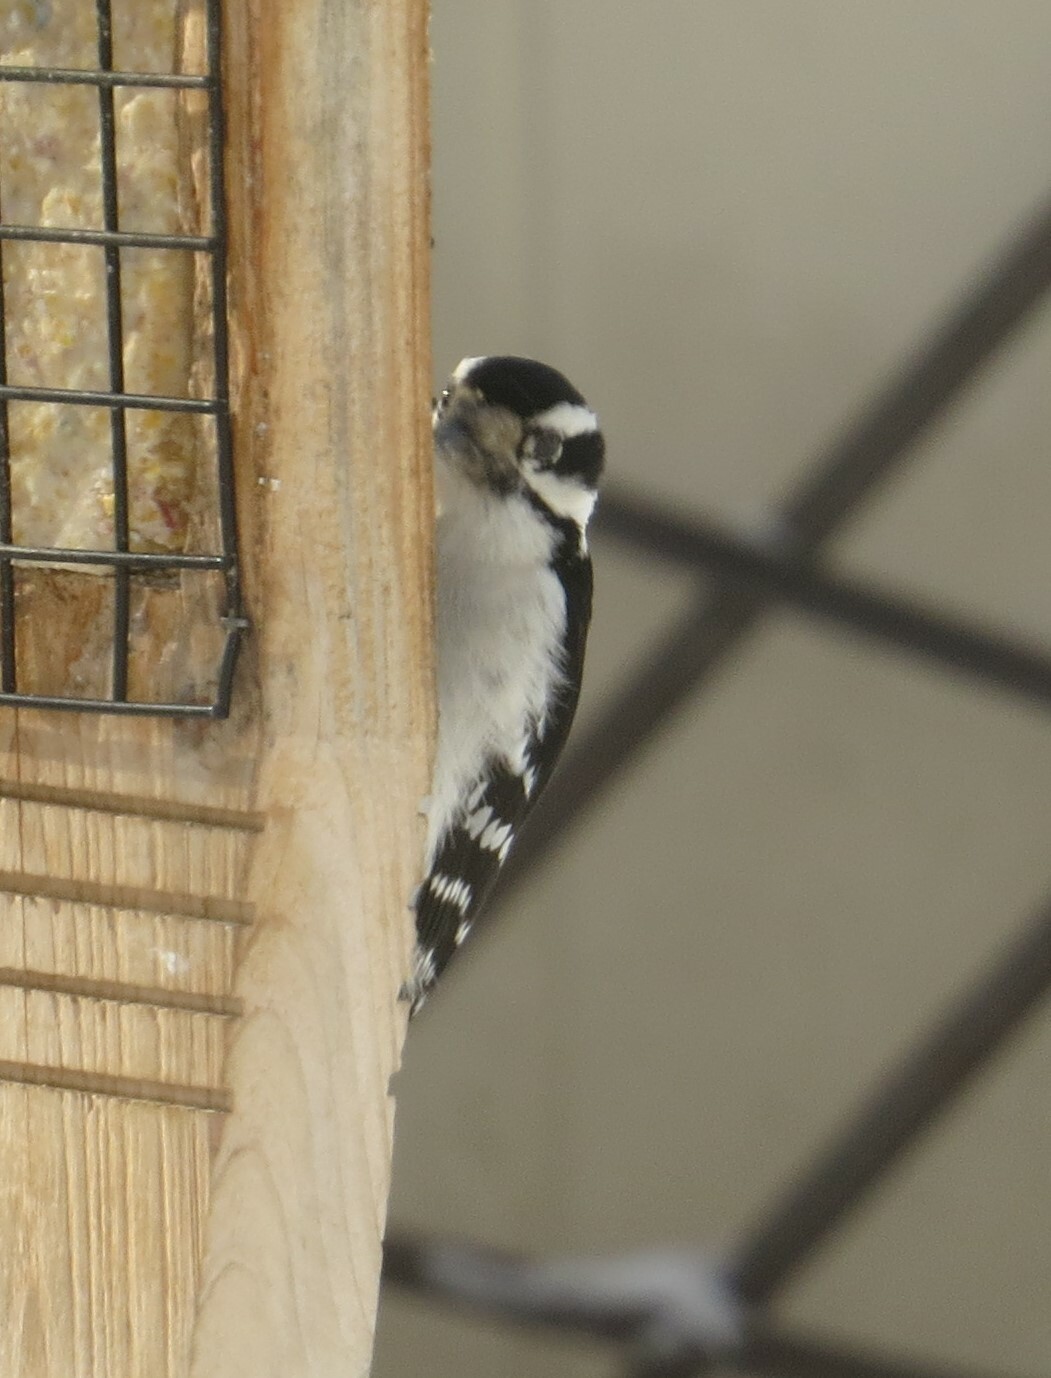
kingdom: Animalia
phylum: Chordata
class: Aves
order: Piciformes
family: Picidae
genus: Dryobates
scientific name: Dryobates pubescens
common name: Downy woodpecker
